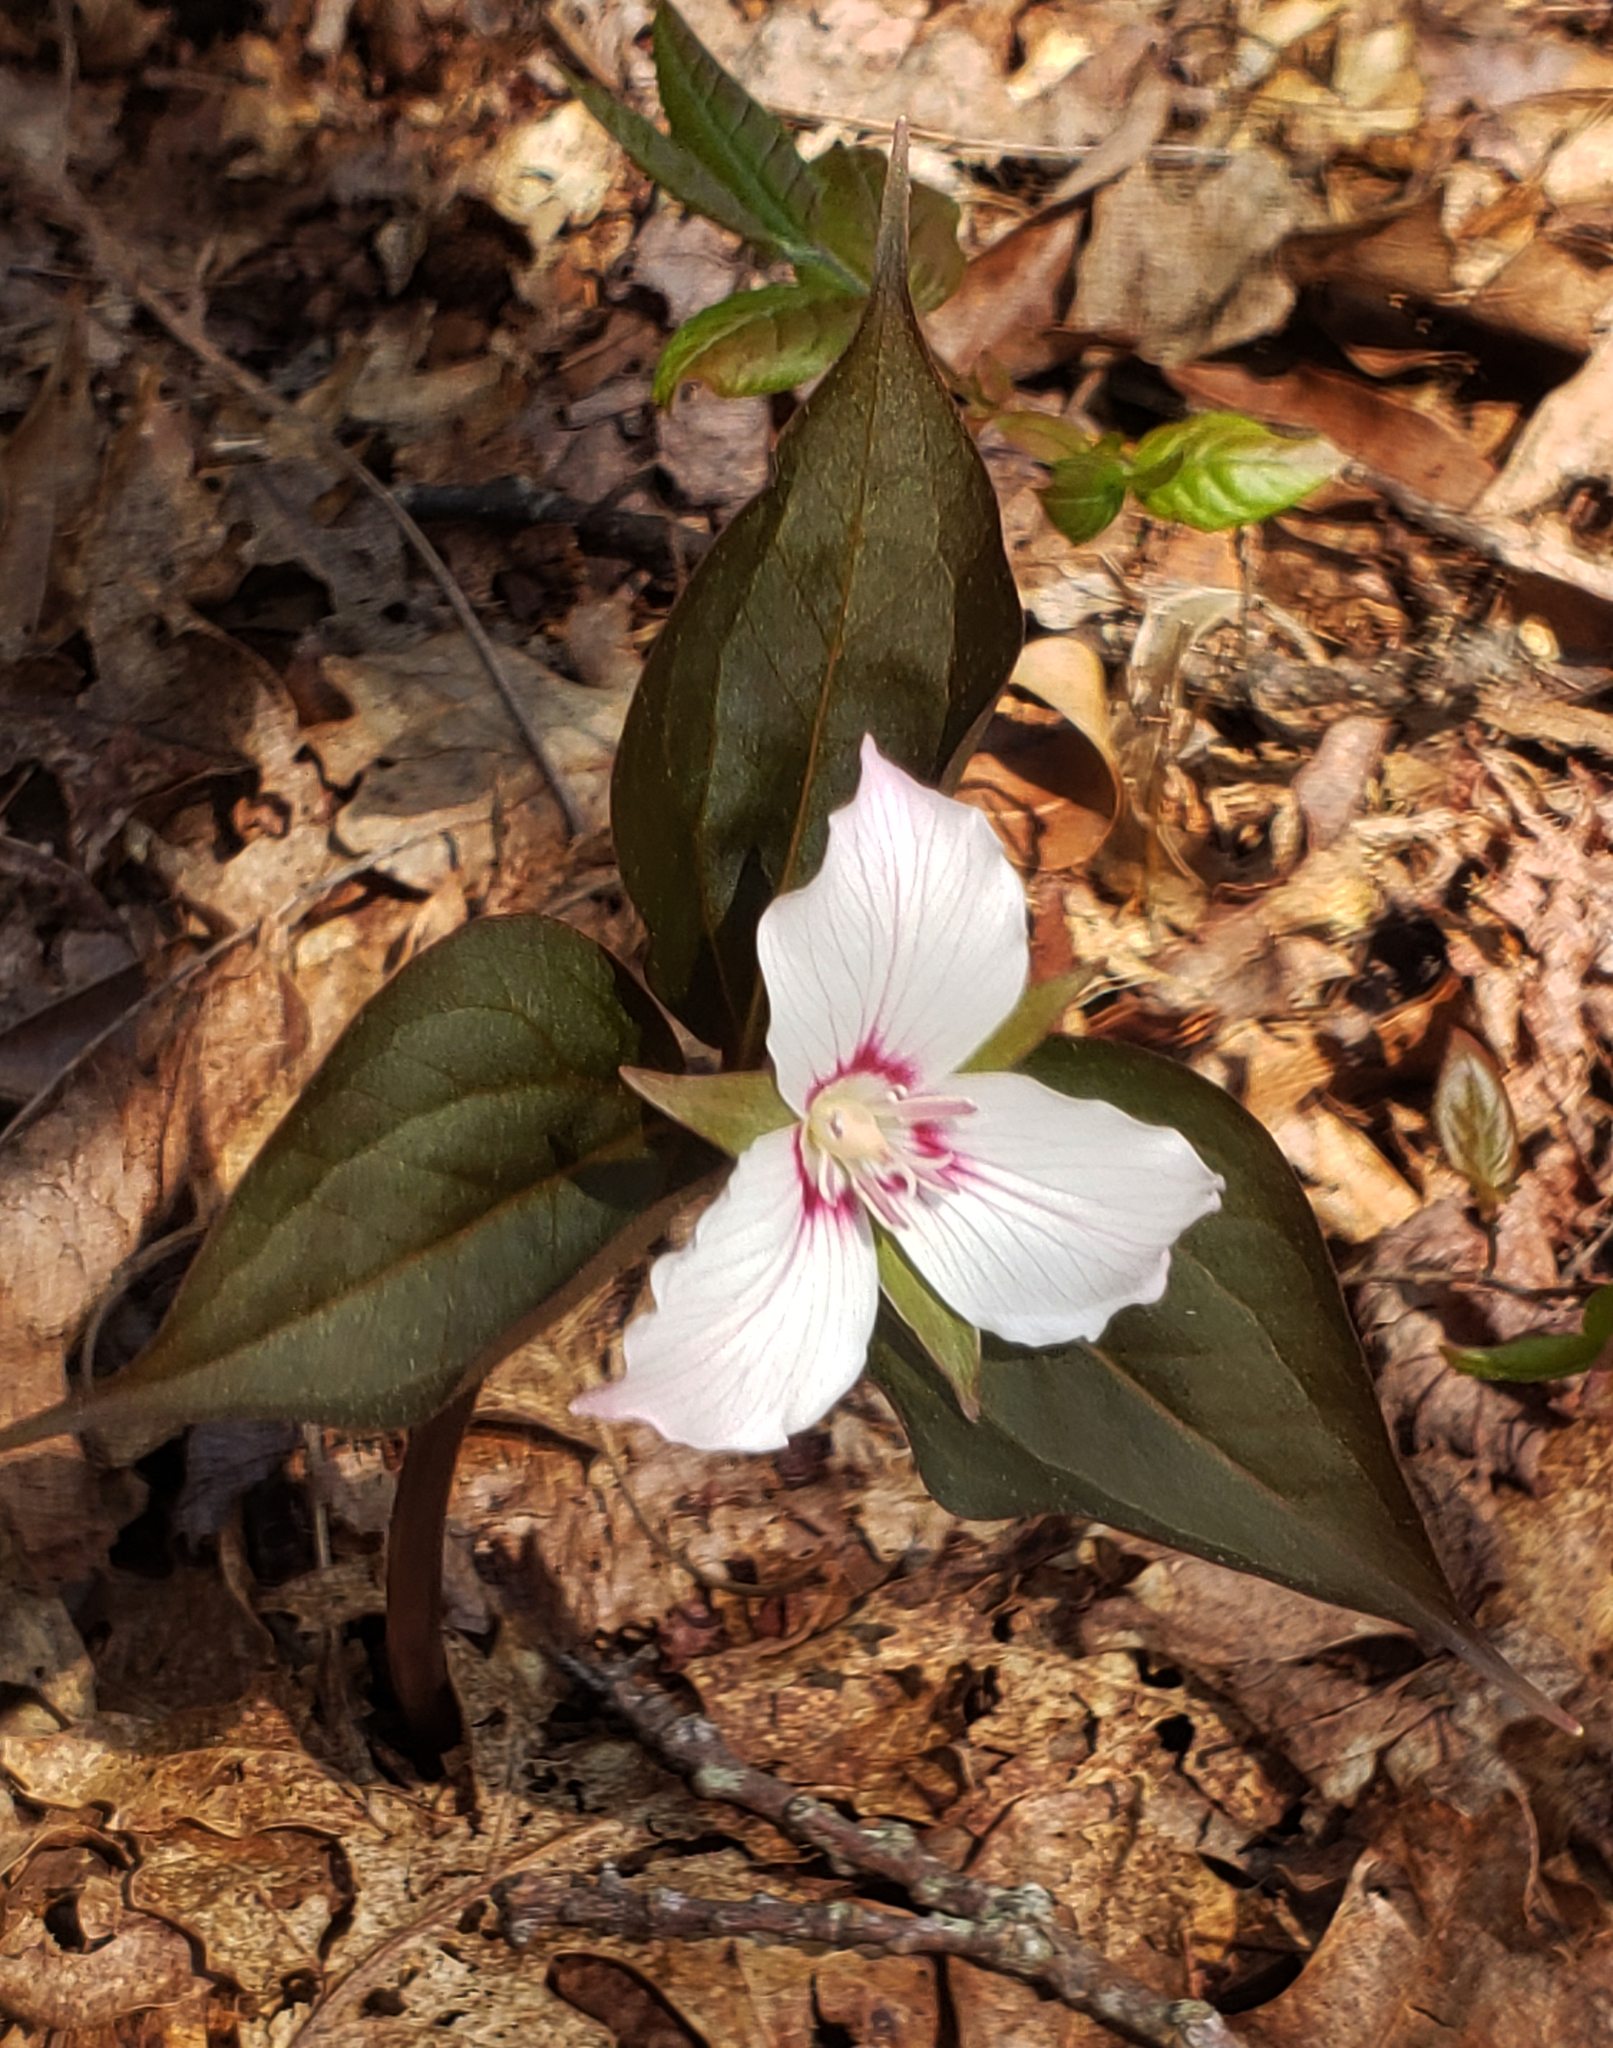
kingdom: Plantae
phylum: Tracheophyta
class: Liliopsida
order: Liliales
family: Melanthiaceae
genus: Trillium
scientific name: Trillium undulatum
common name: Paint trillium
